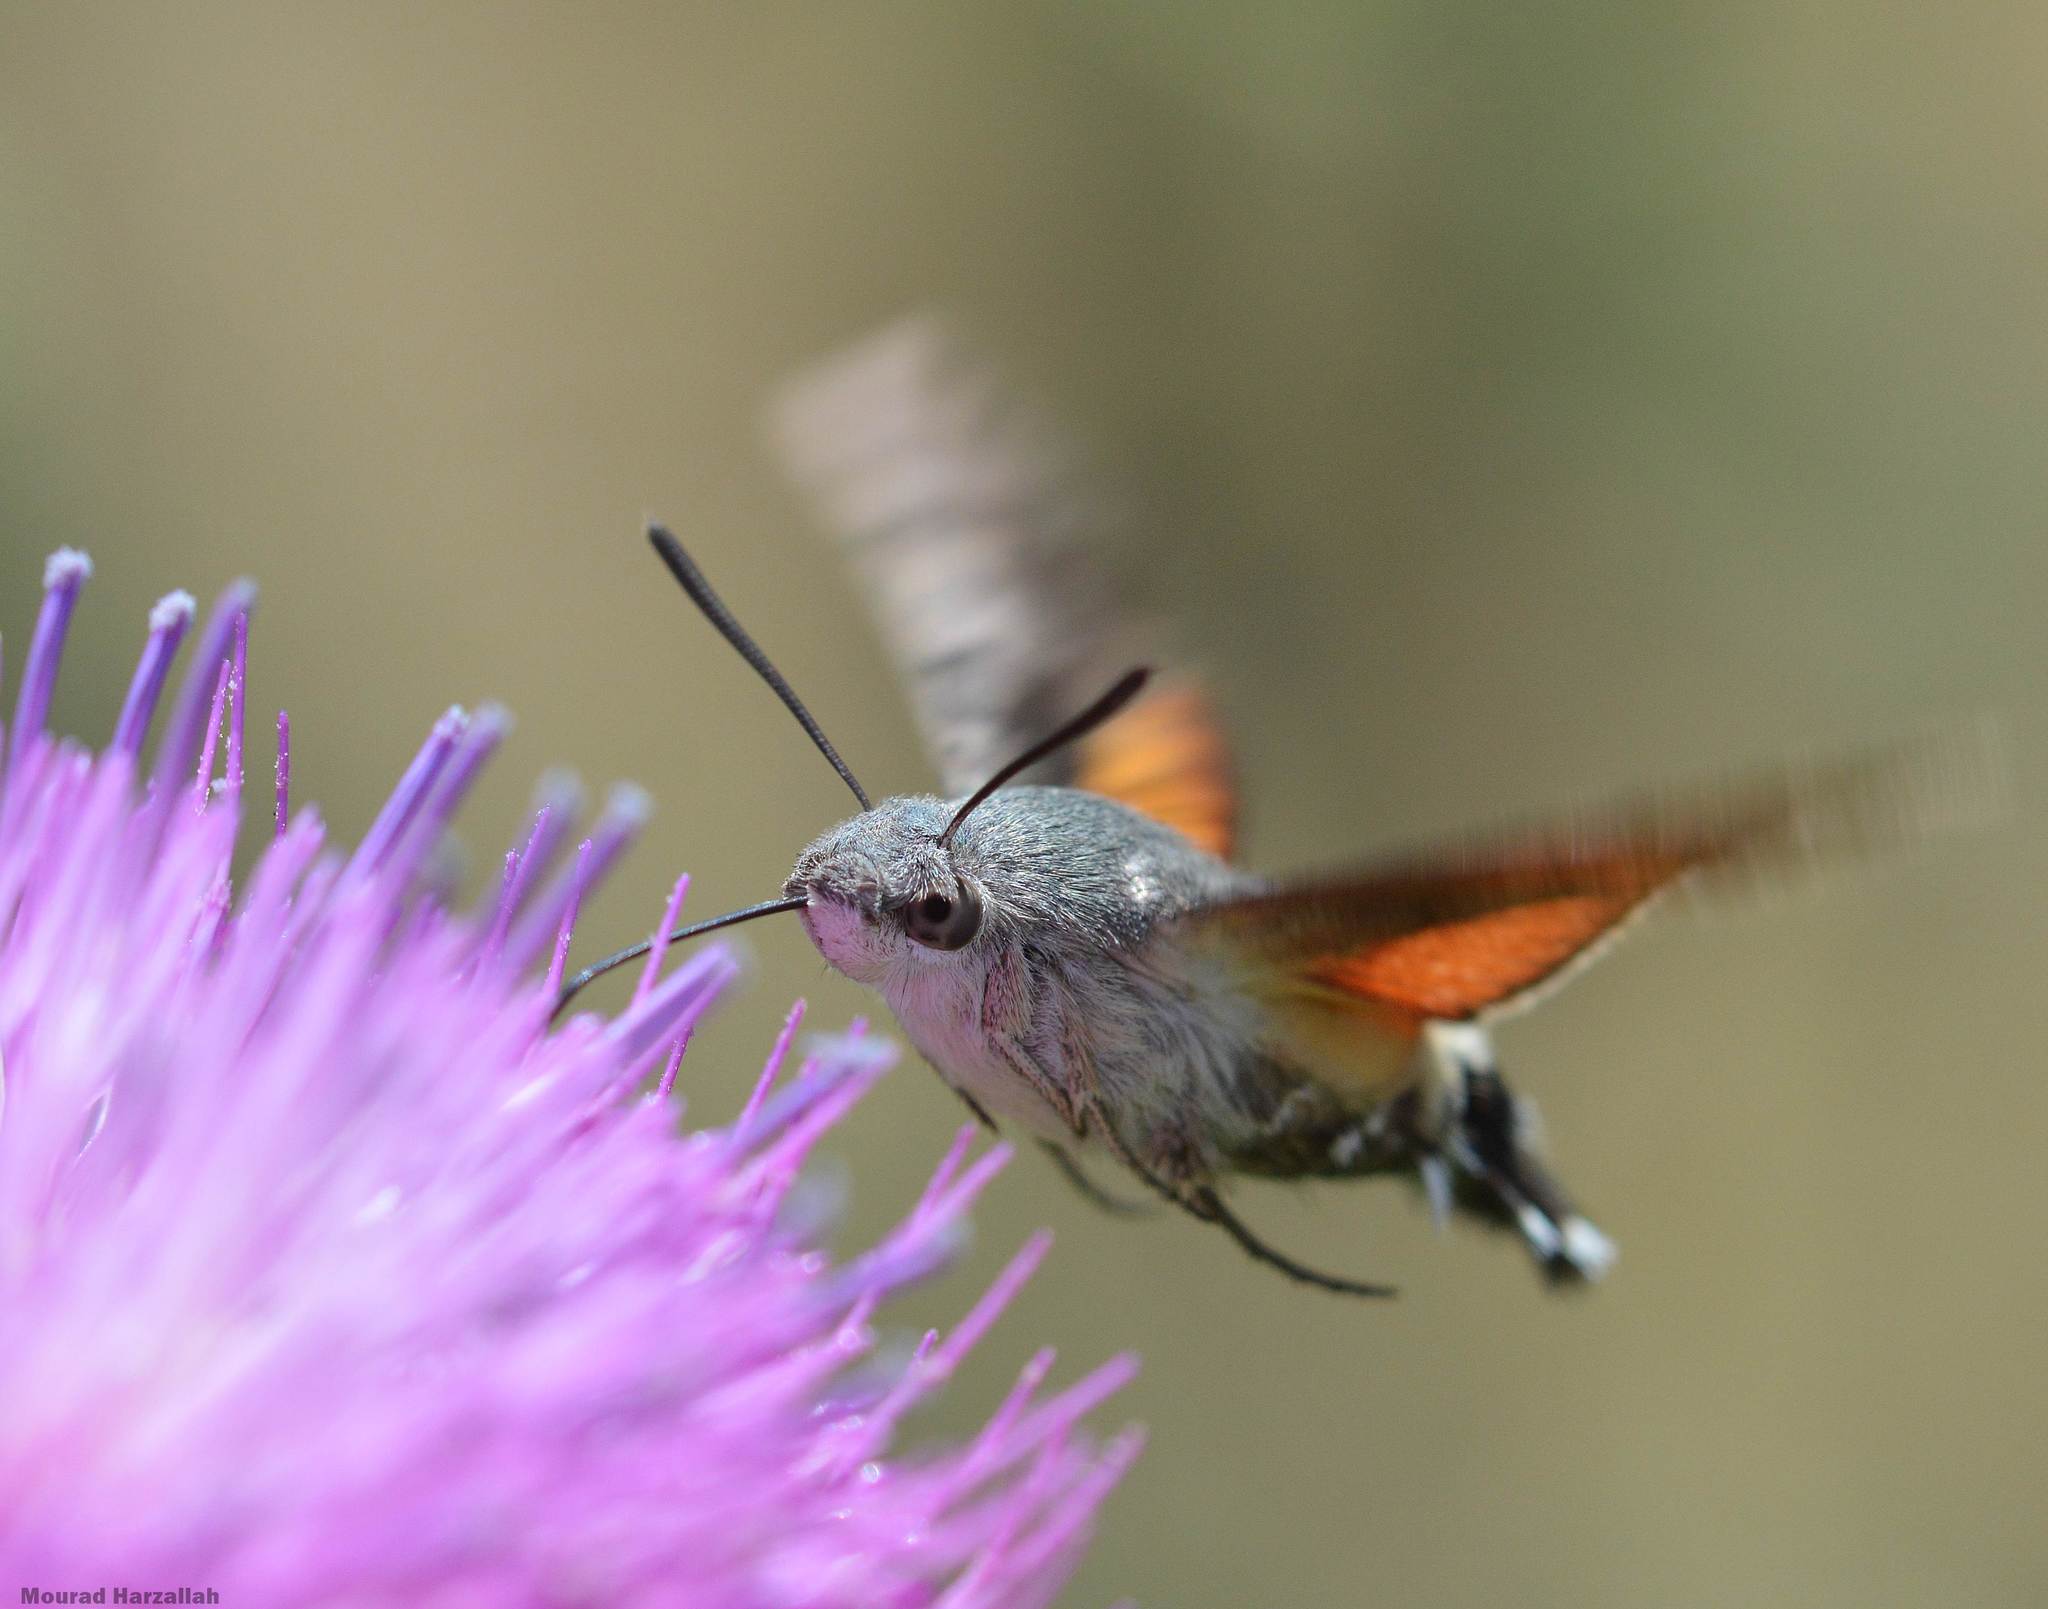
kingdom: Animalia
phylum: Arthropoda
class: Insecta
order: Lepidoptera
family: Sphingidae
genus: Macroglossum
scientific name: Macroglossum stellatarum
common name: Humming-bird hawk-moth
